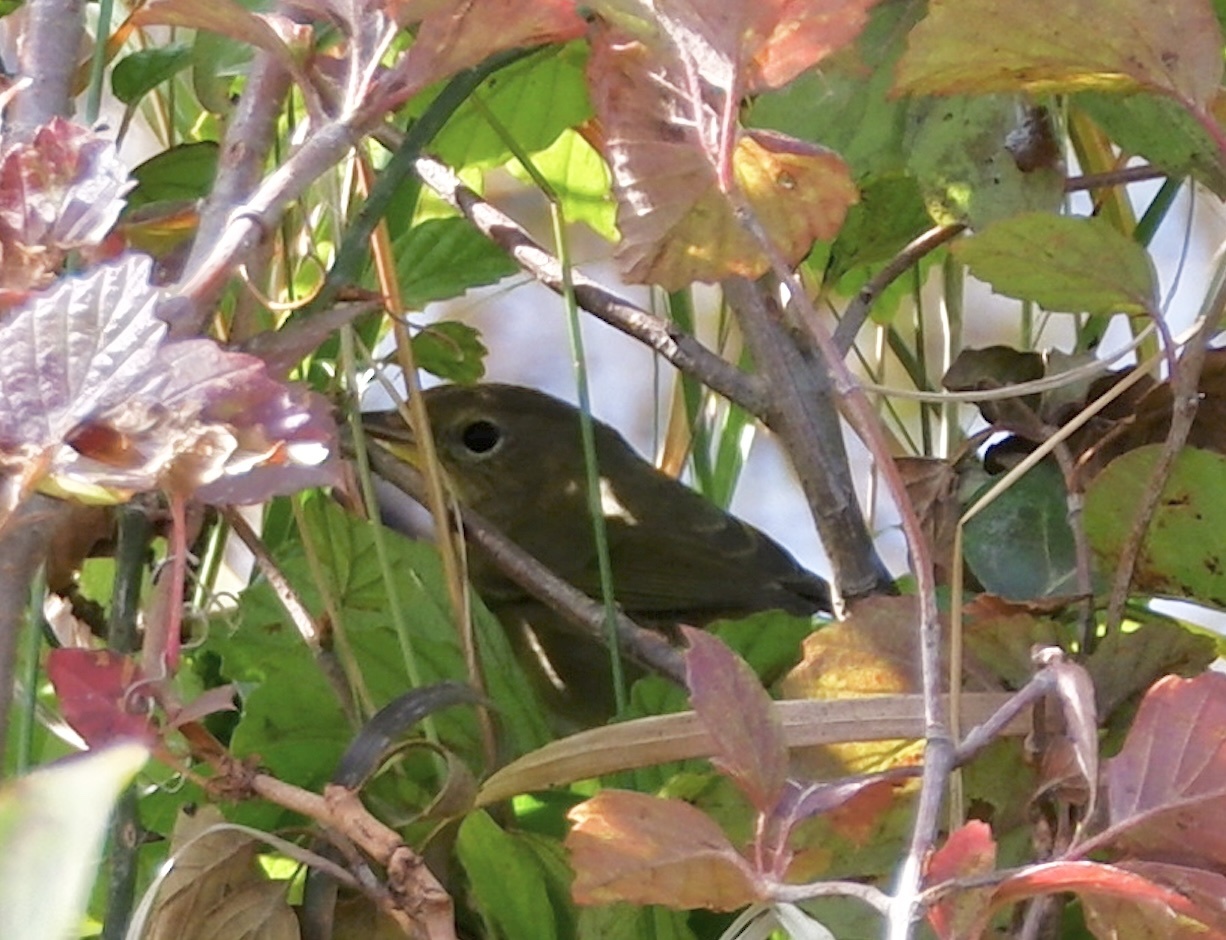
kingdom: Animalia
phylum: Chordata
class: Aves
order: Passeriformes
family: Parulidae
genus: Geothlypis
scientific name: Geothlypis trichas
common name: Common yellowthroat
